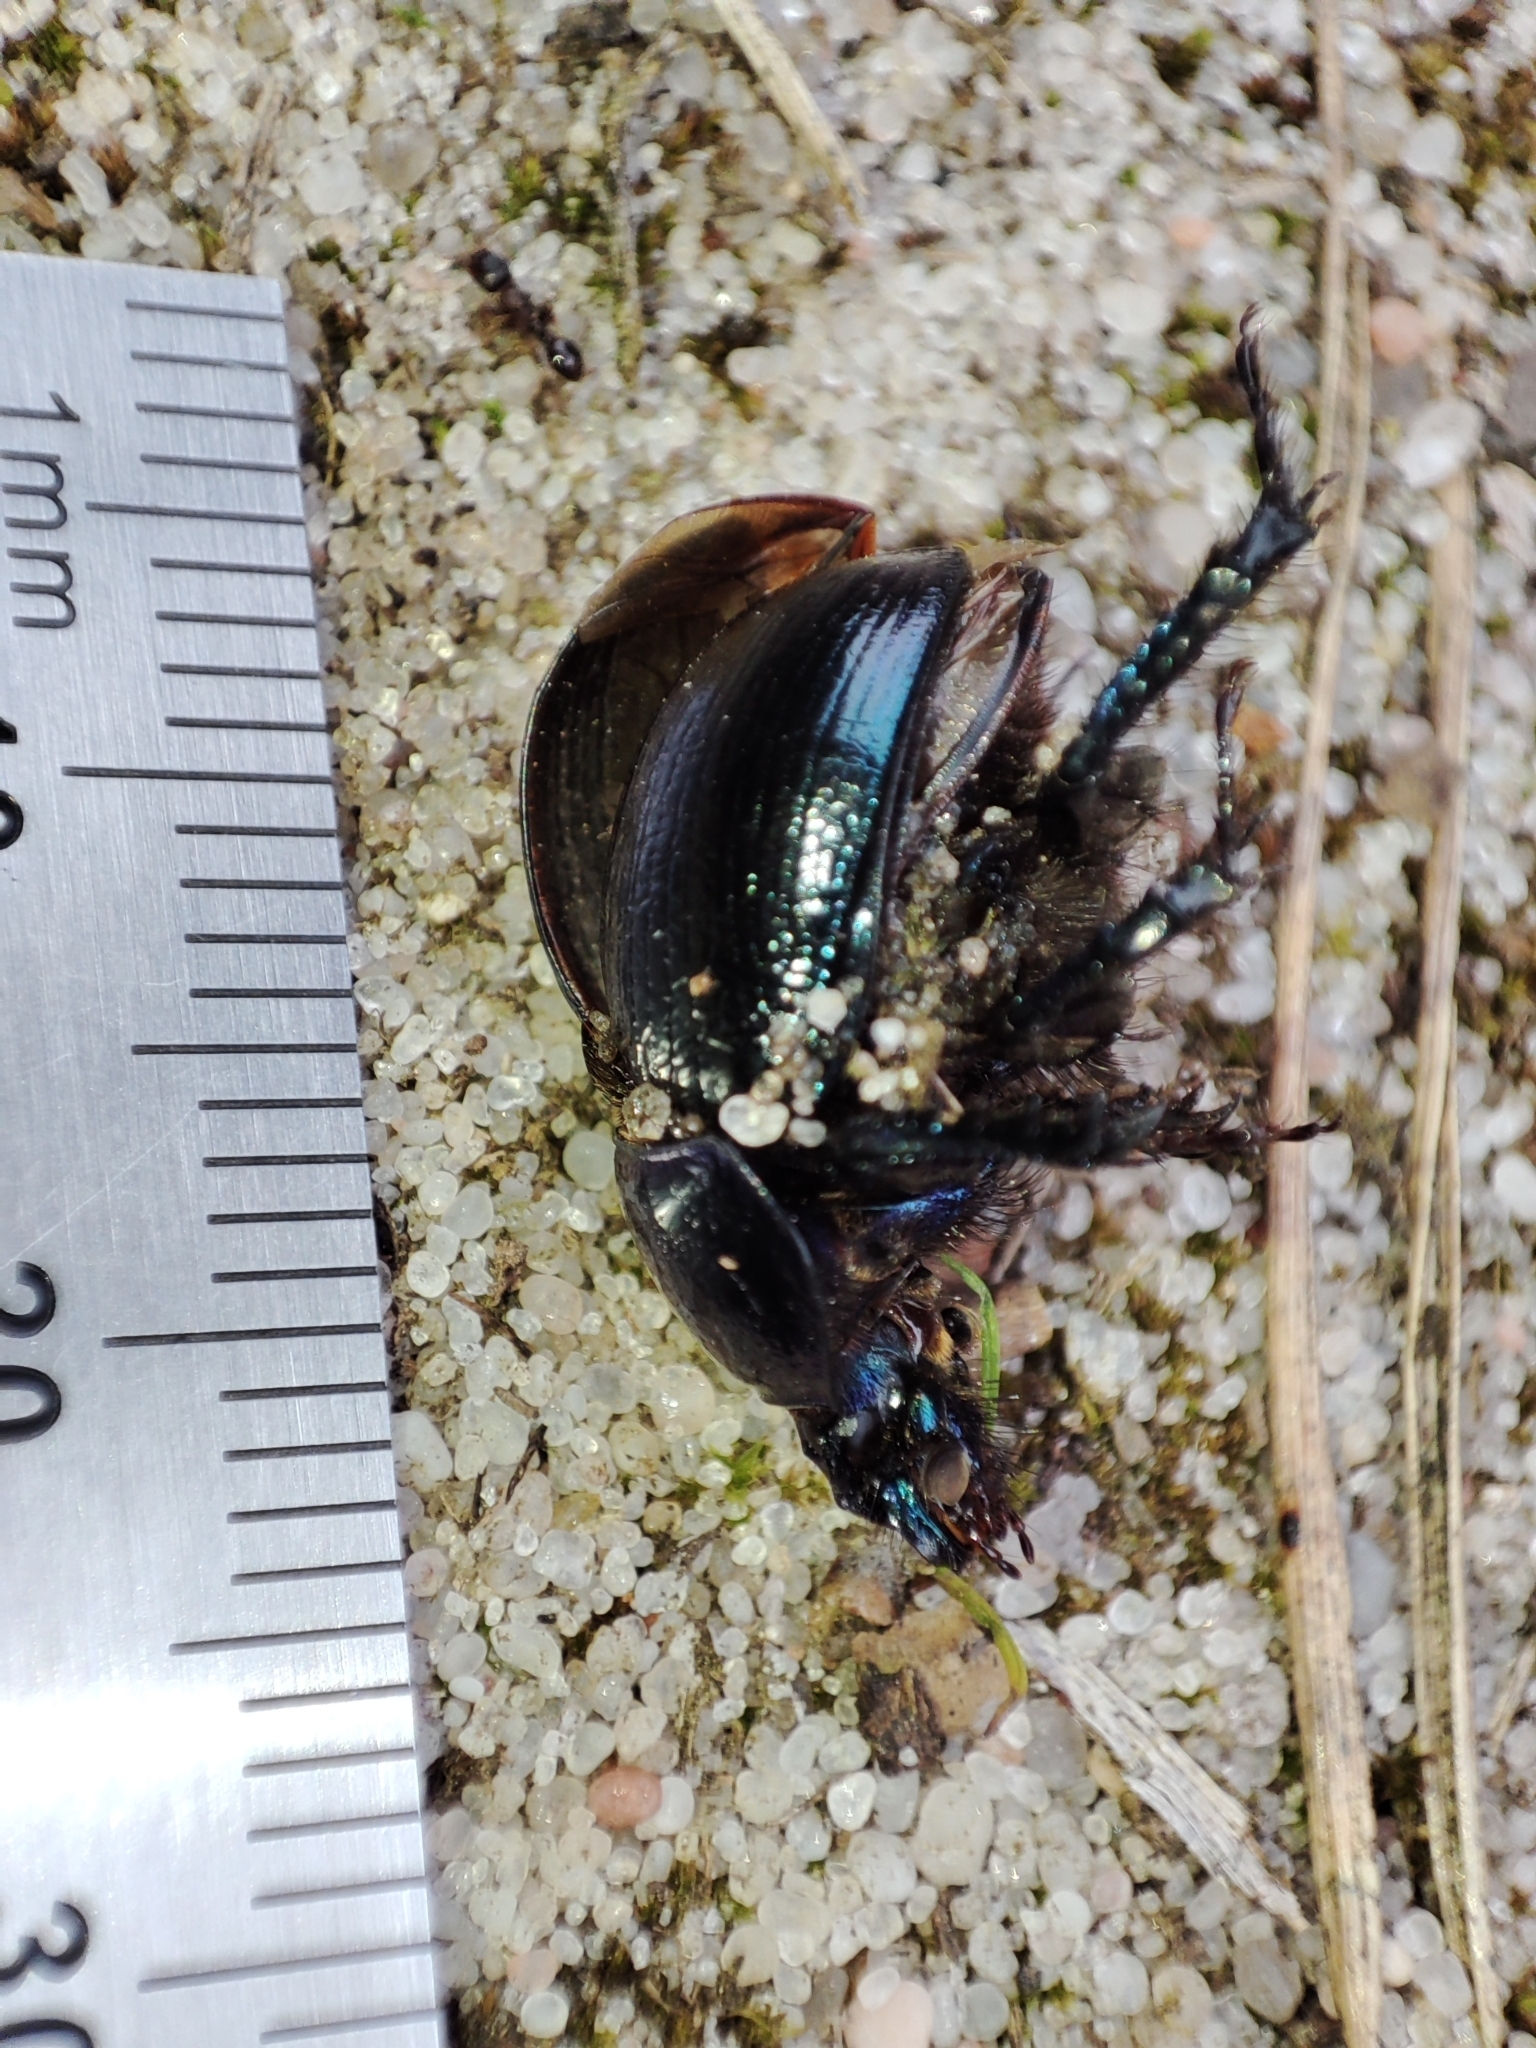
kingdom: Animalia
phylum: Arthropoda
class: Insecta
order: Coleoptera
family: Geotrupidae
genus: Anoplotrupes
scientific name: Anoplotrupes stercorosus
